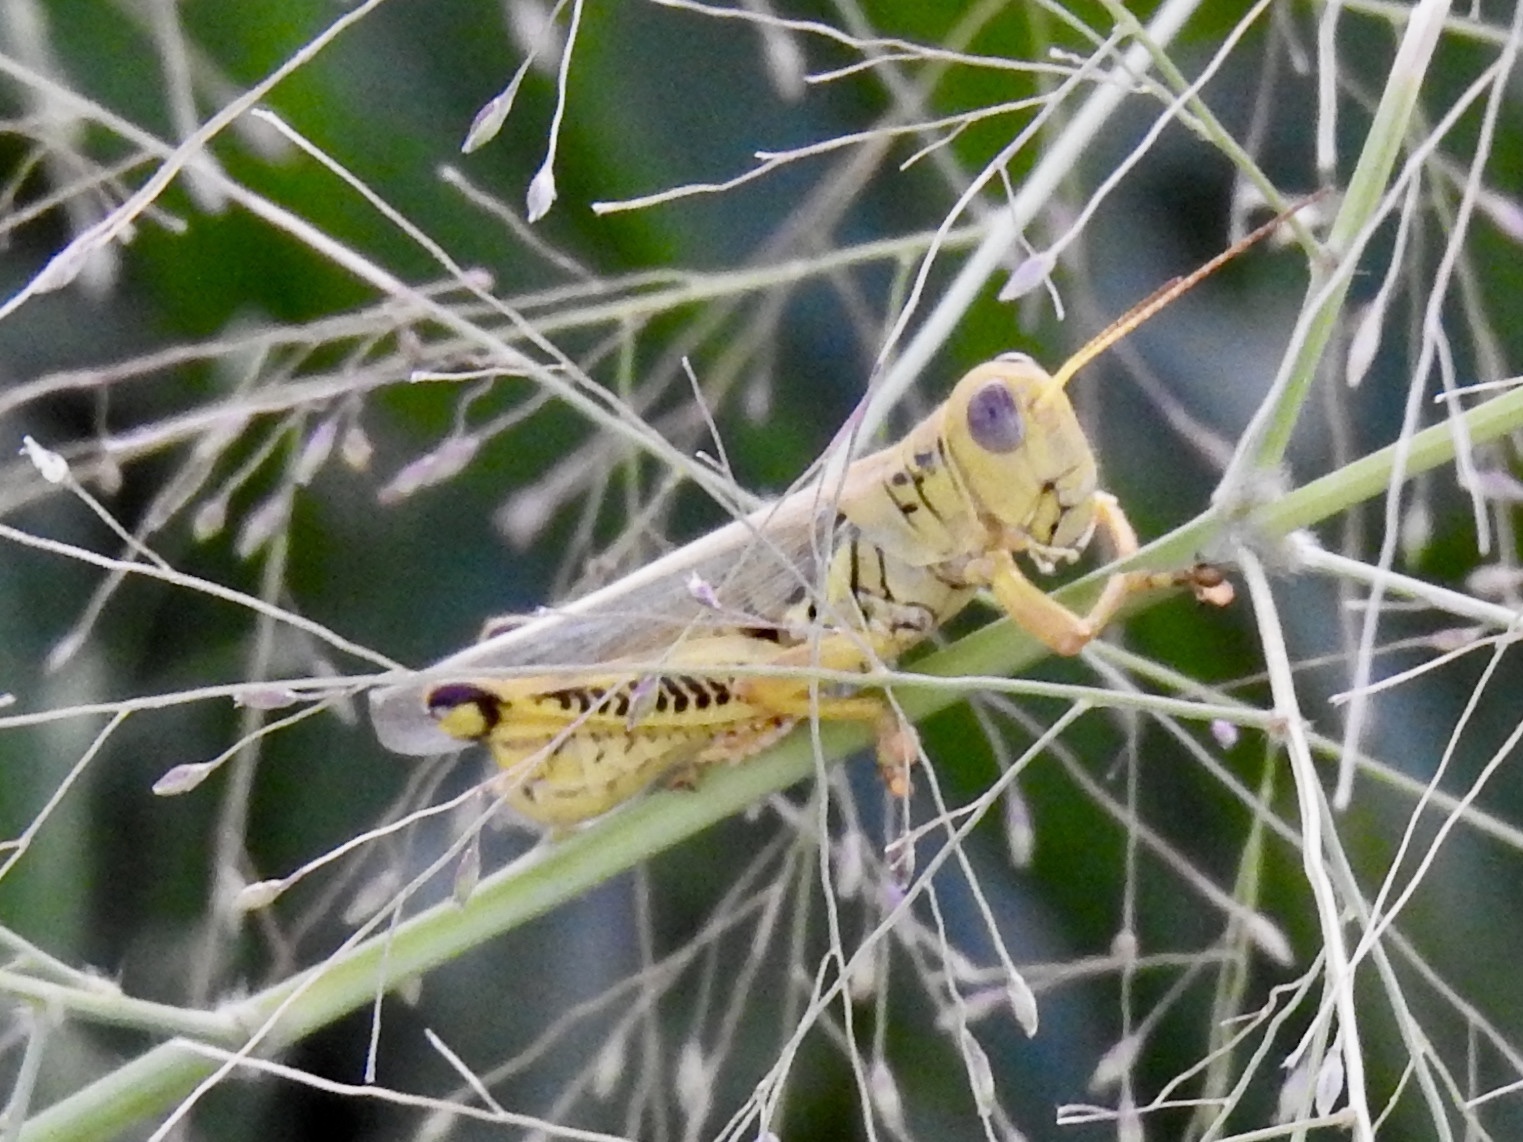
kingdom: Animalia
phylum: Arthropoda
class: Insecta
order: Orthoptera
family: Acrididae
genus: Melanoplus
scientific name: Melanoplus differentialis
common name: Differential grasshopper
